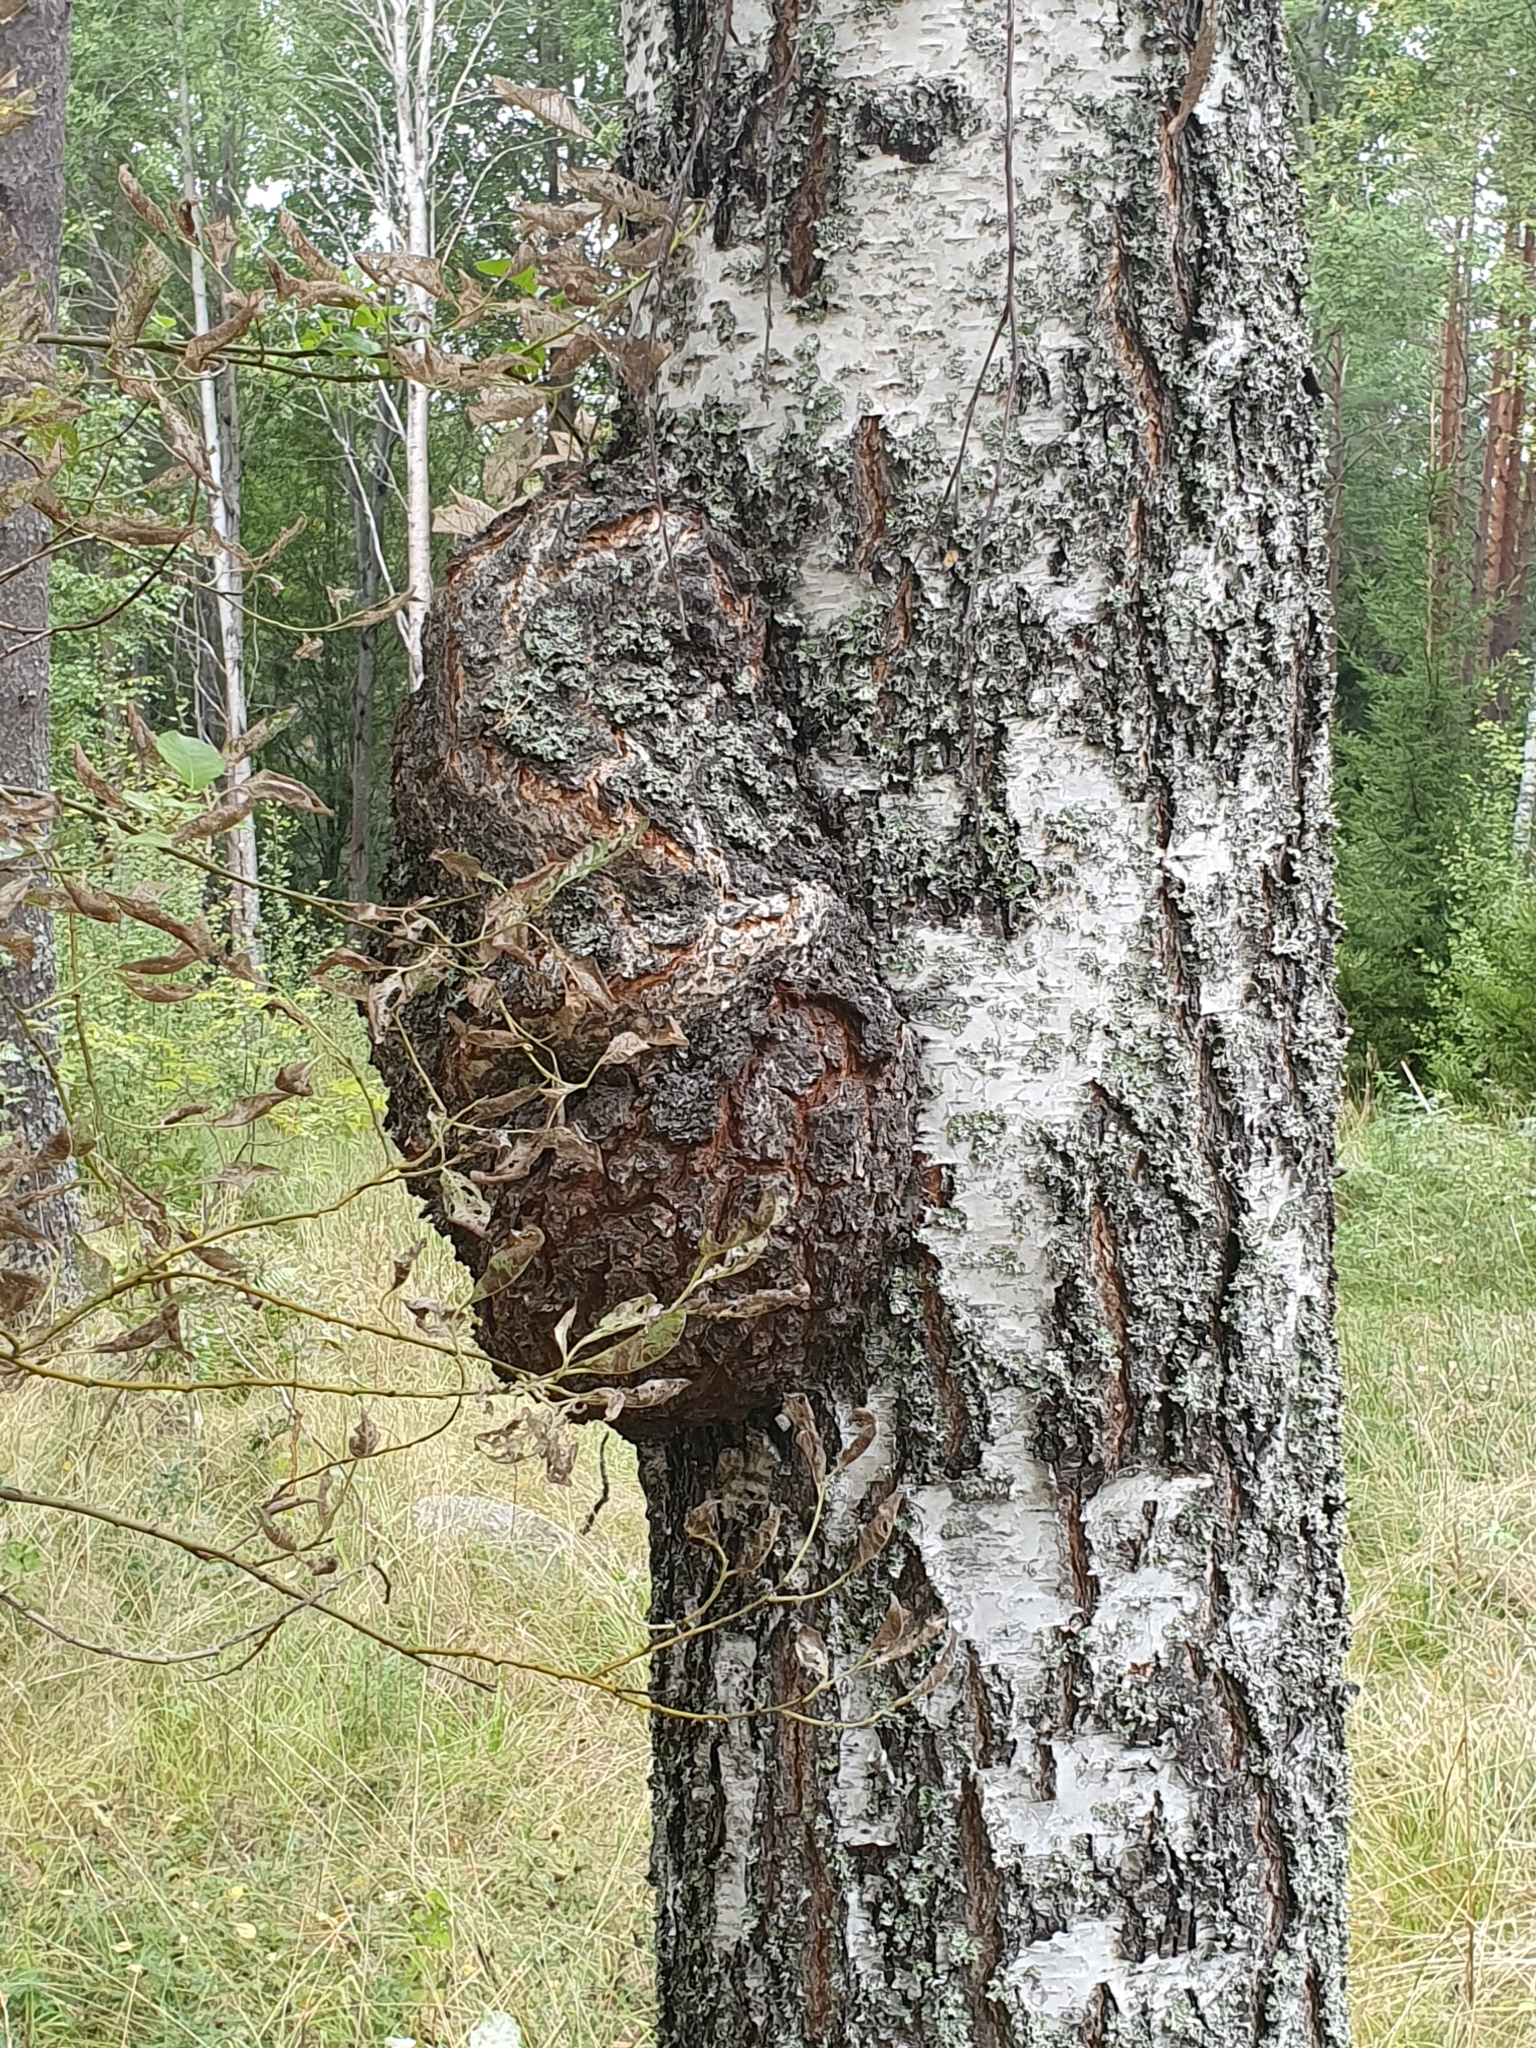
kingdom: Bacteria
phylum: Proteobacteria
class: Alphaproteobacteria
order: Rhizobiales
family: Rhizobiaceae
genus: Rhizobium
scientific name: Rhizobium Agrobacterium radiobacter
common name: Bacterial crown gall
